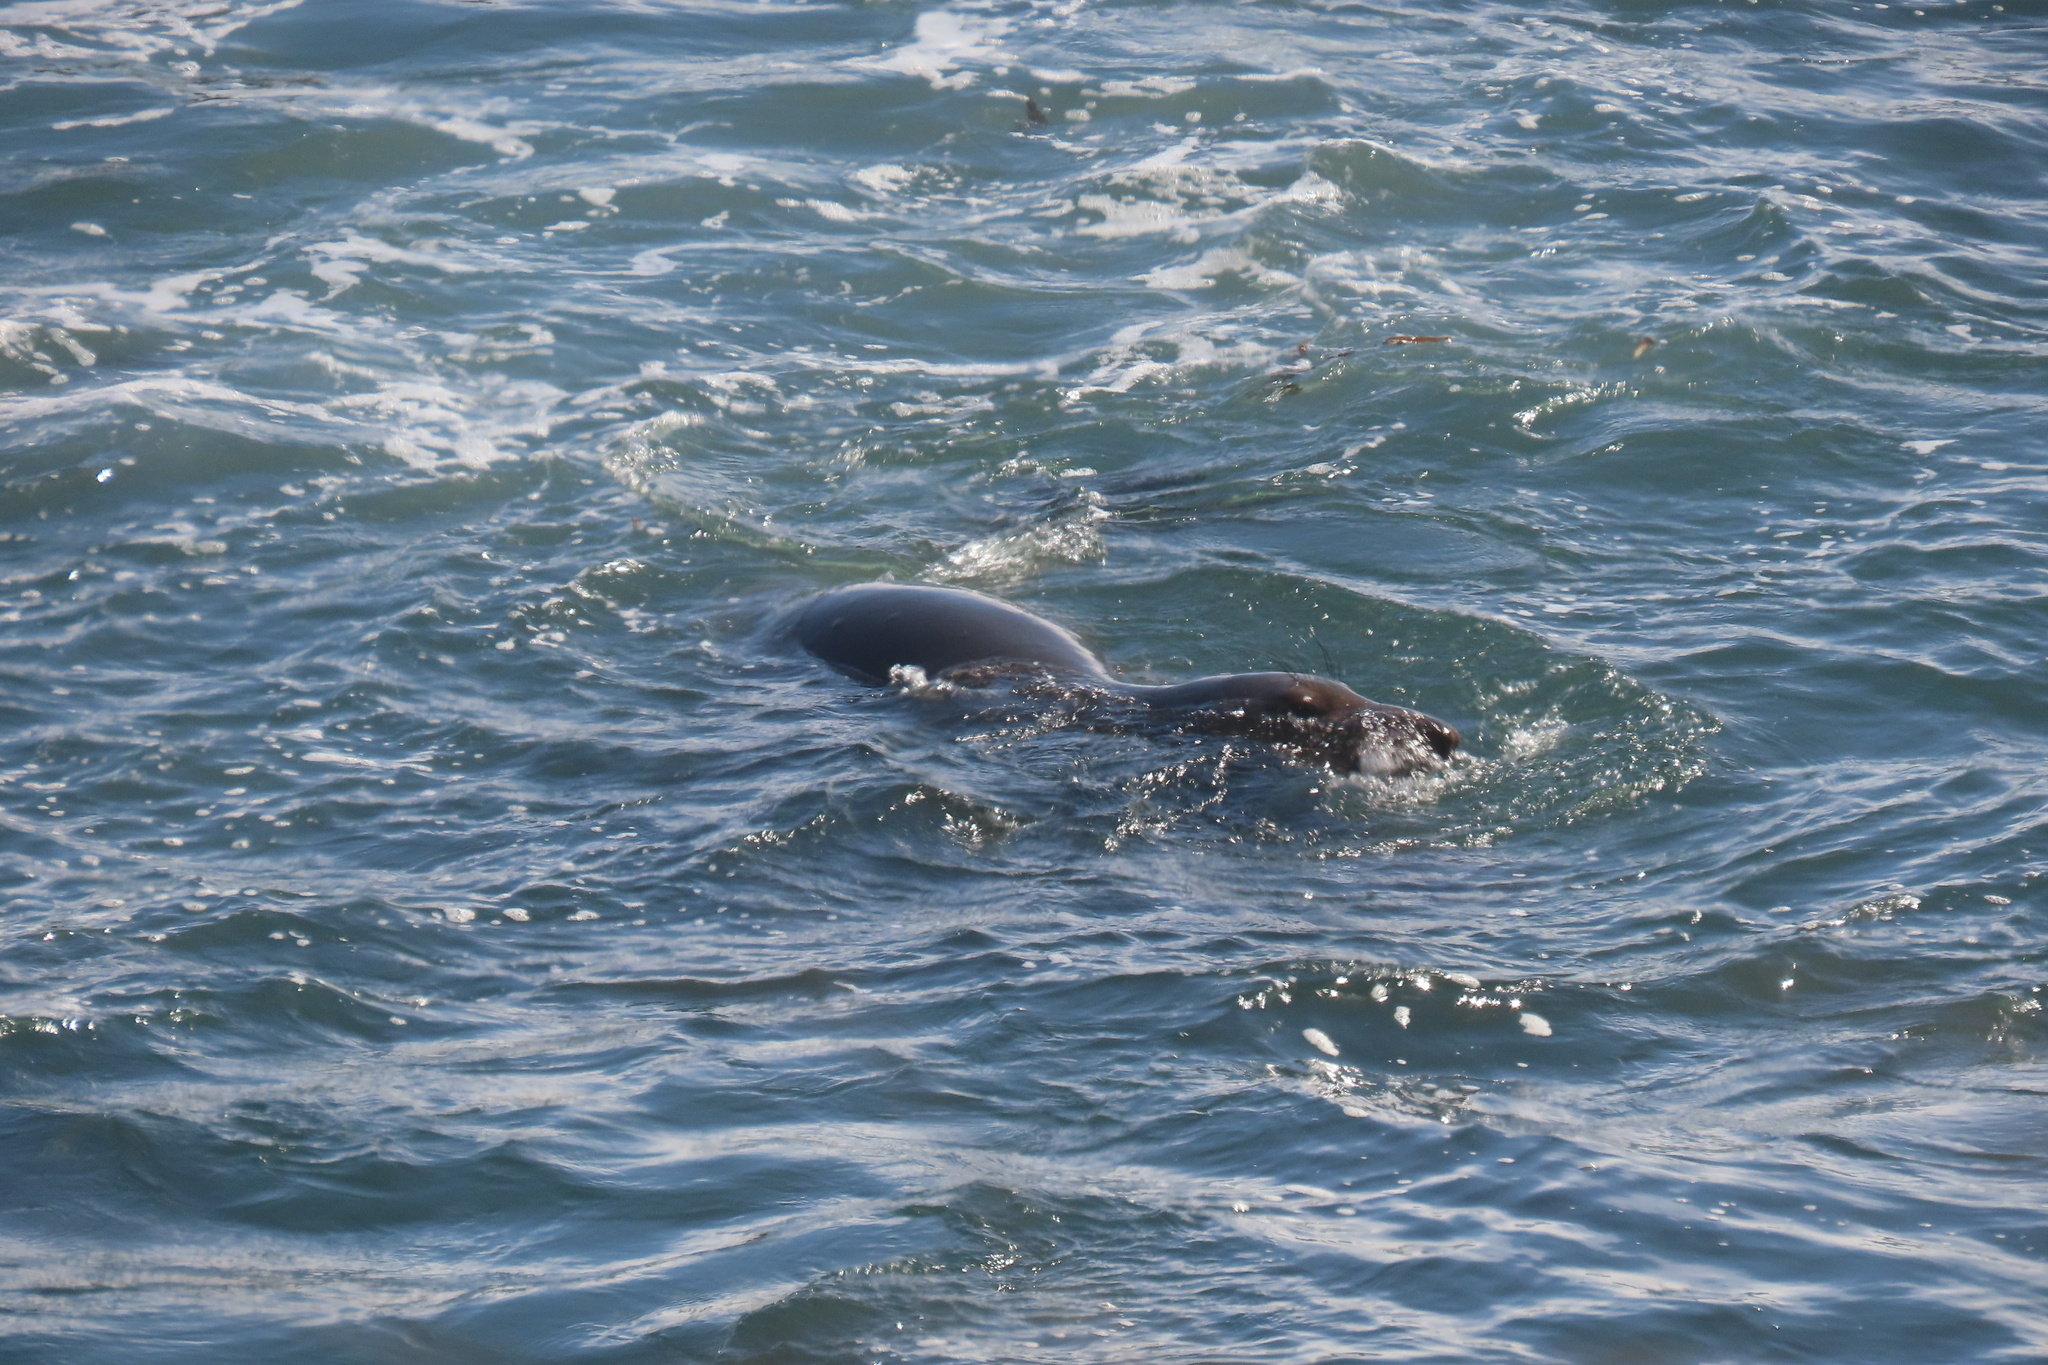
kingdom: Animalia
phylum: Chordata
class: Mammalia
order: Carnivora
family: Phocidae
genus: Mirounga
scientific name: Mirounga angustirostris
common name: Northern elephant seal
